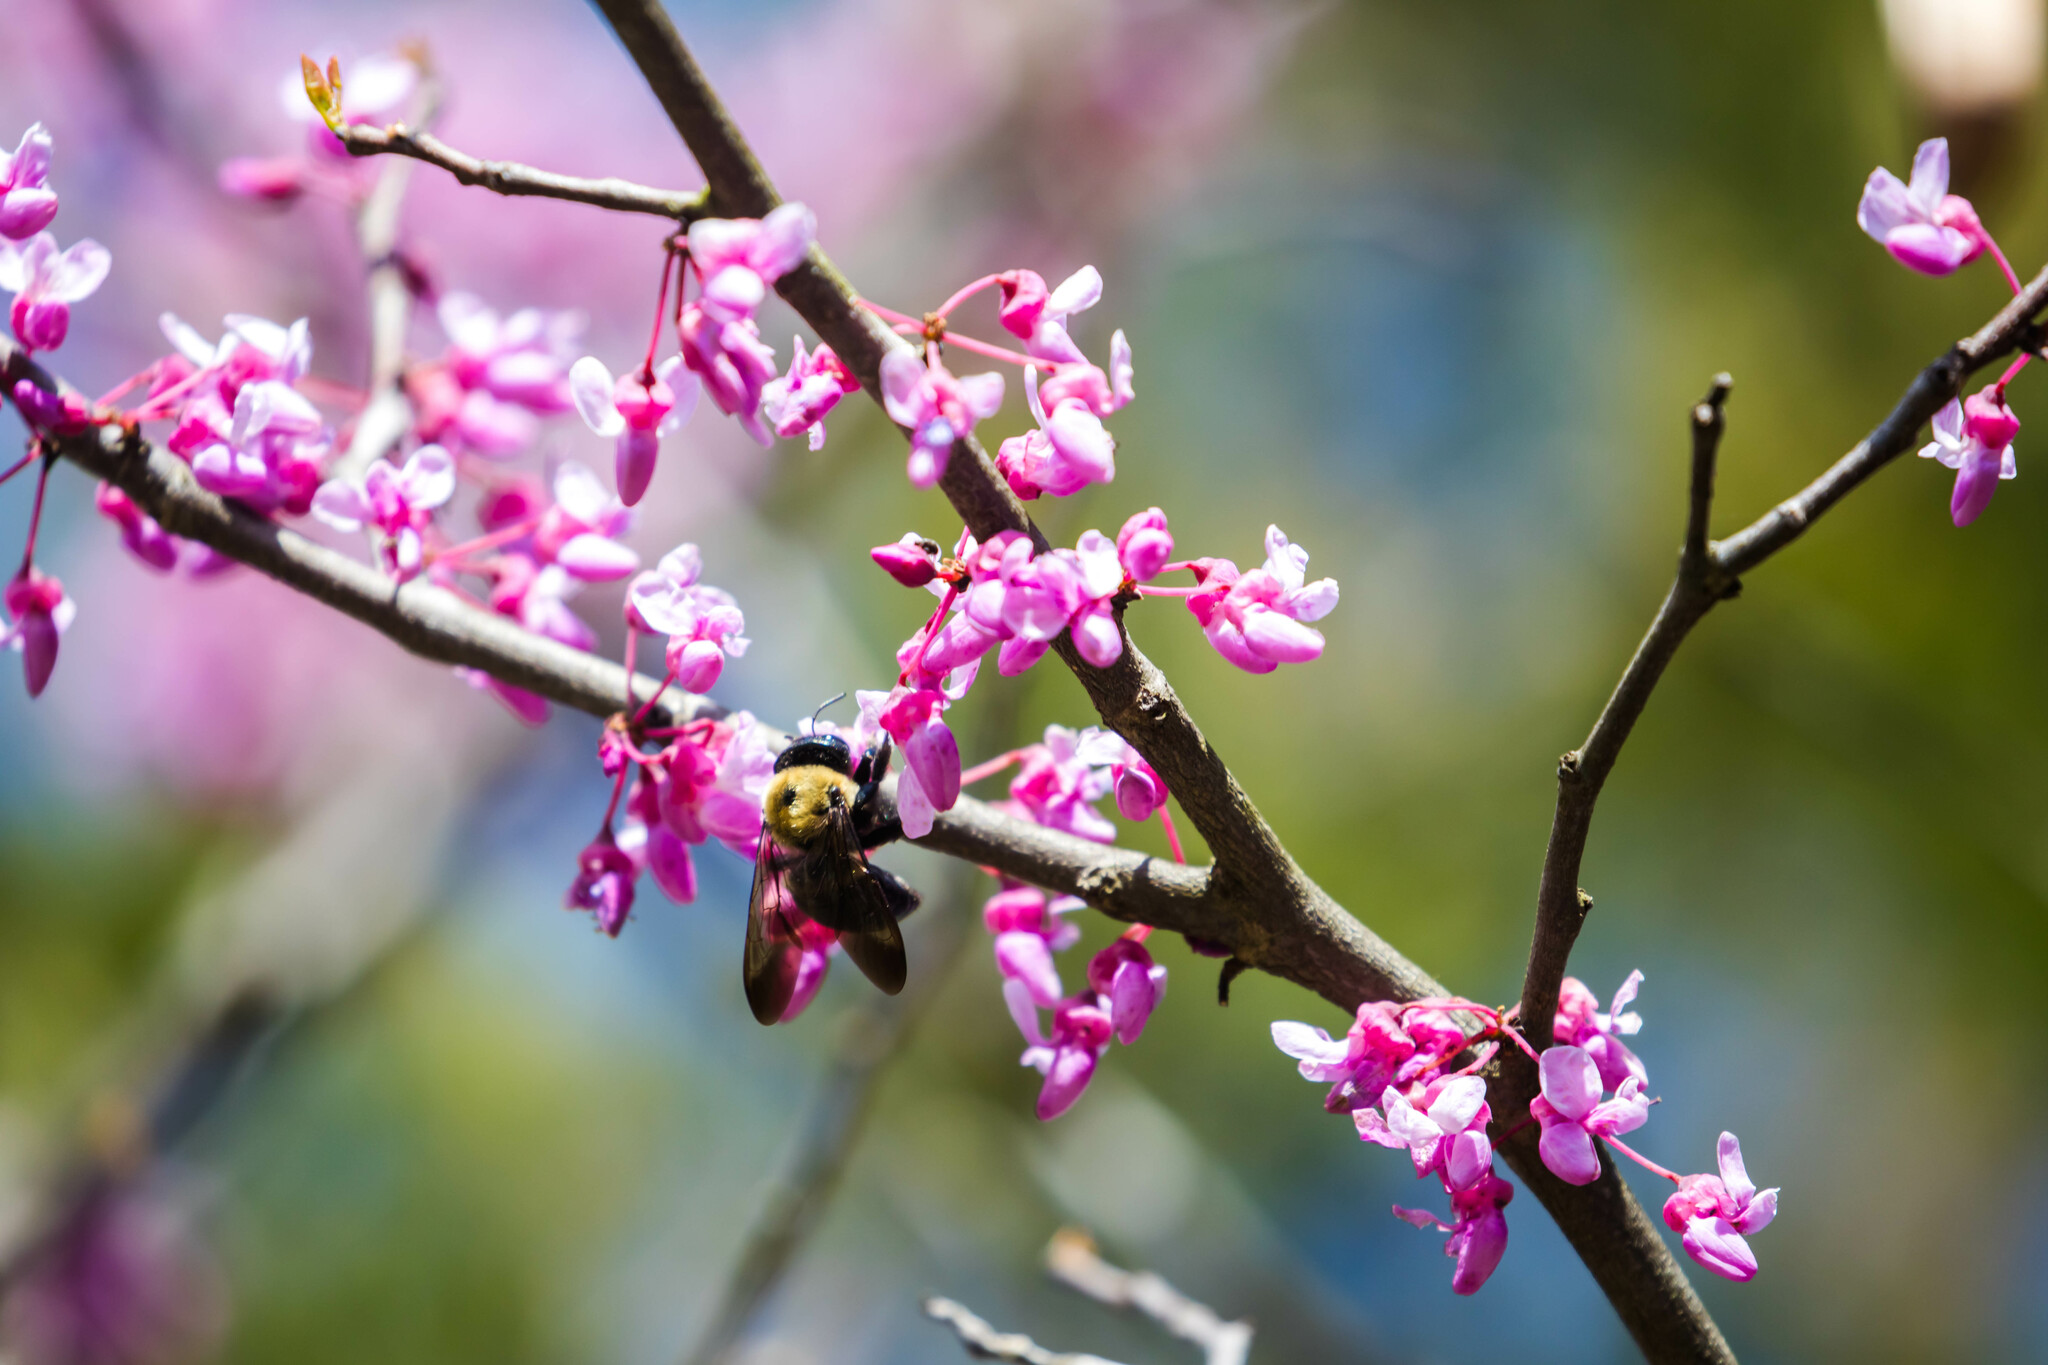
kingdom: Animalia
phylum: Arthropoda
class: Insecta
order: Hymenoptera
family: Apidae
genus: Xylocopa
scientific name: Xylocopa virginica
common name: Carpenter bee
